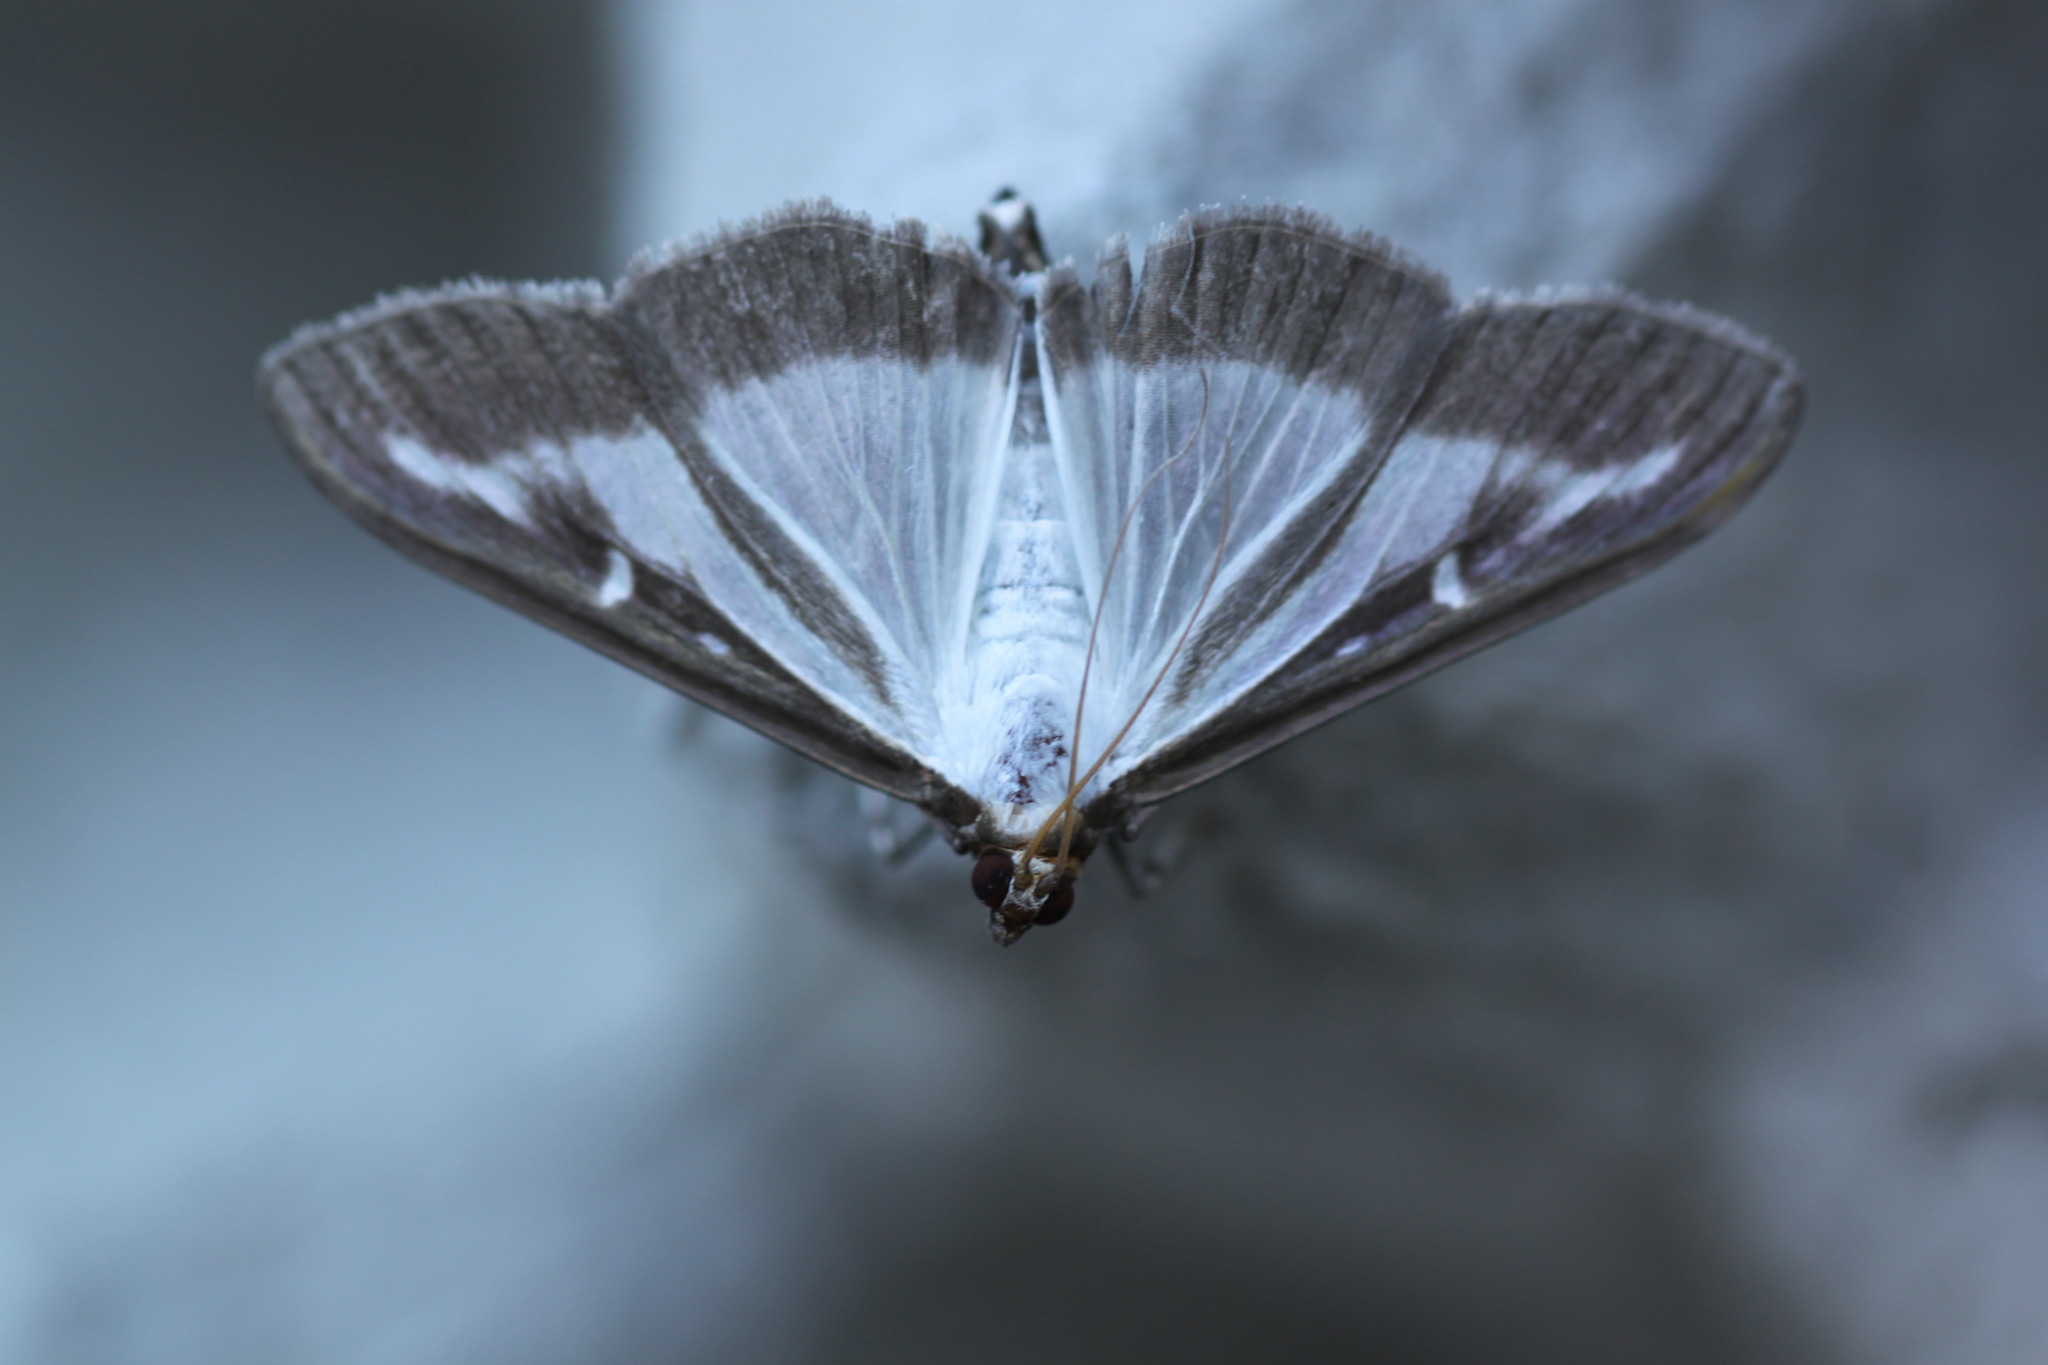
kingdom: Animalia
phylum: Arthropoda
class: Insecta
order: Lepidoptera
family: Crambidae
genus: Cydalima
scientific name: Cydalima perspectalis
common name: Box tree moth
